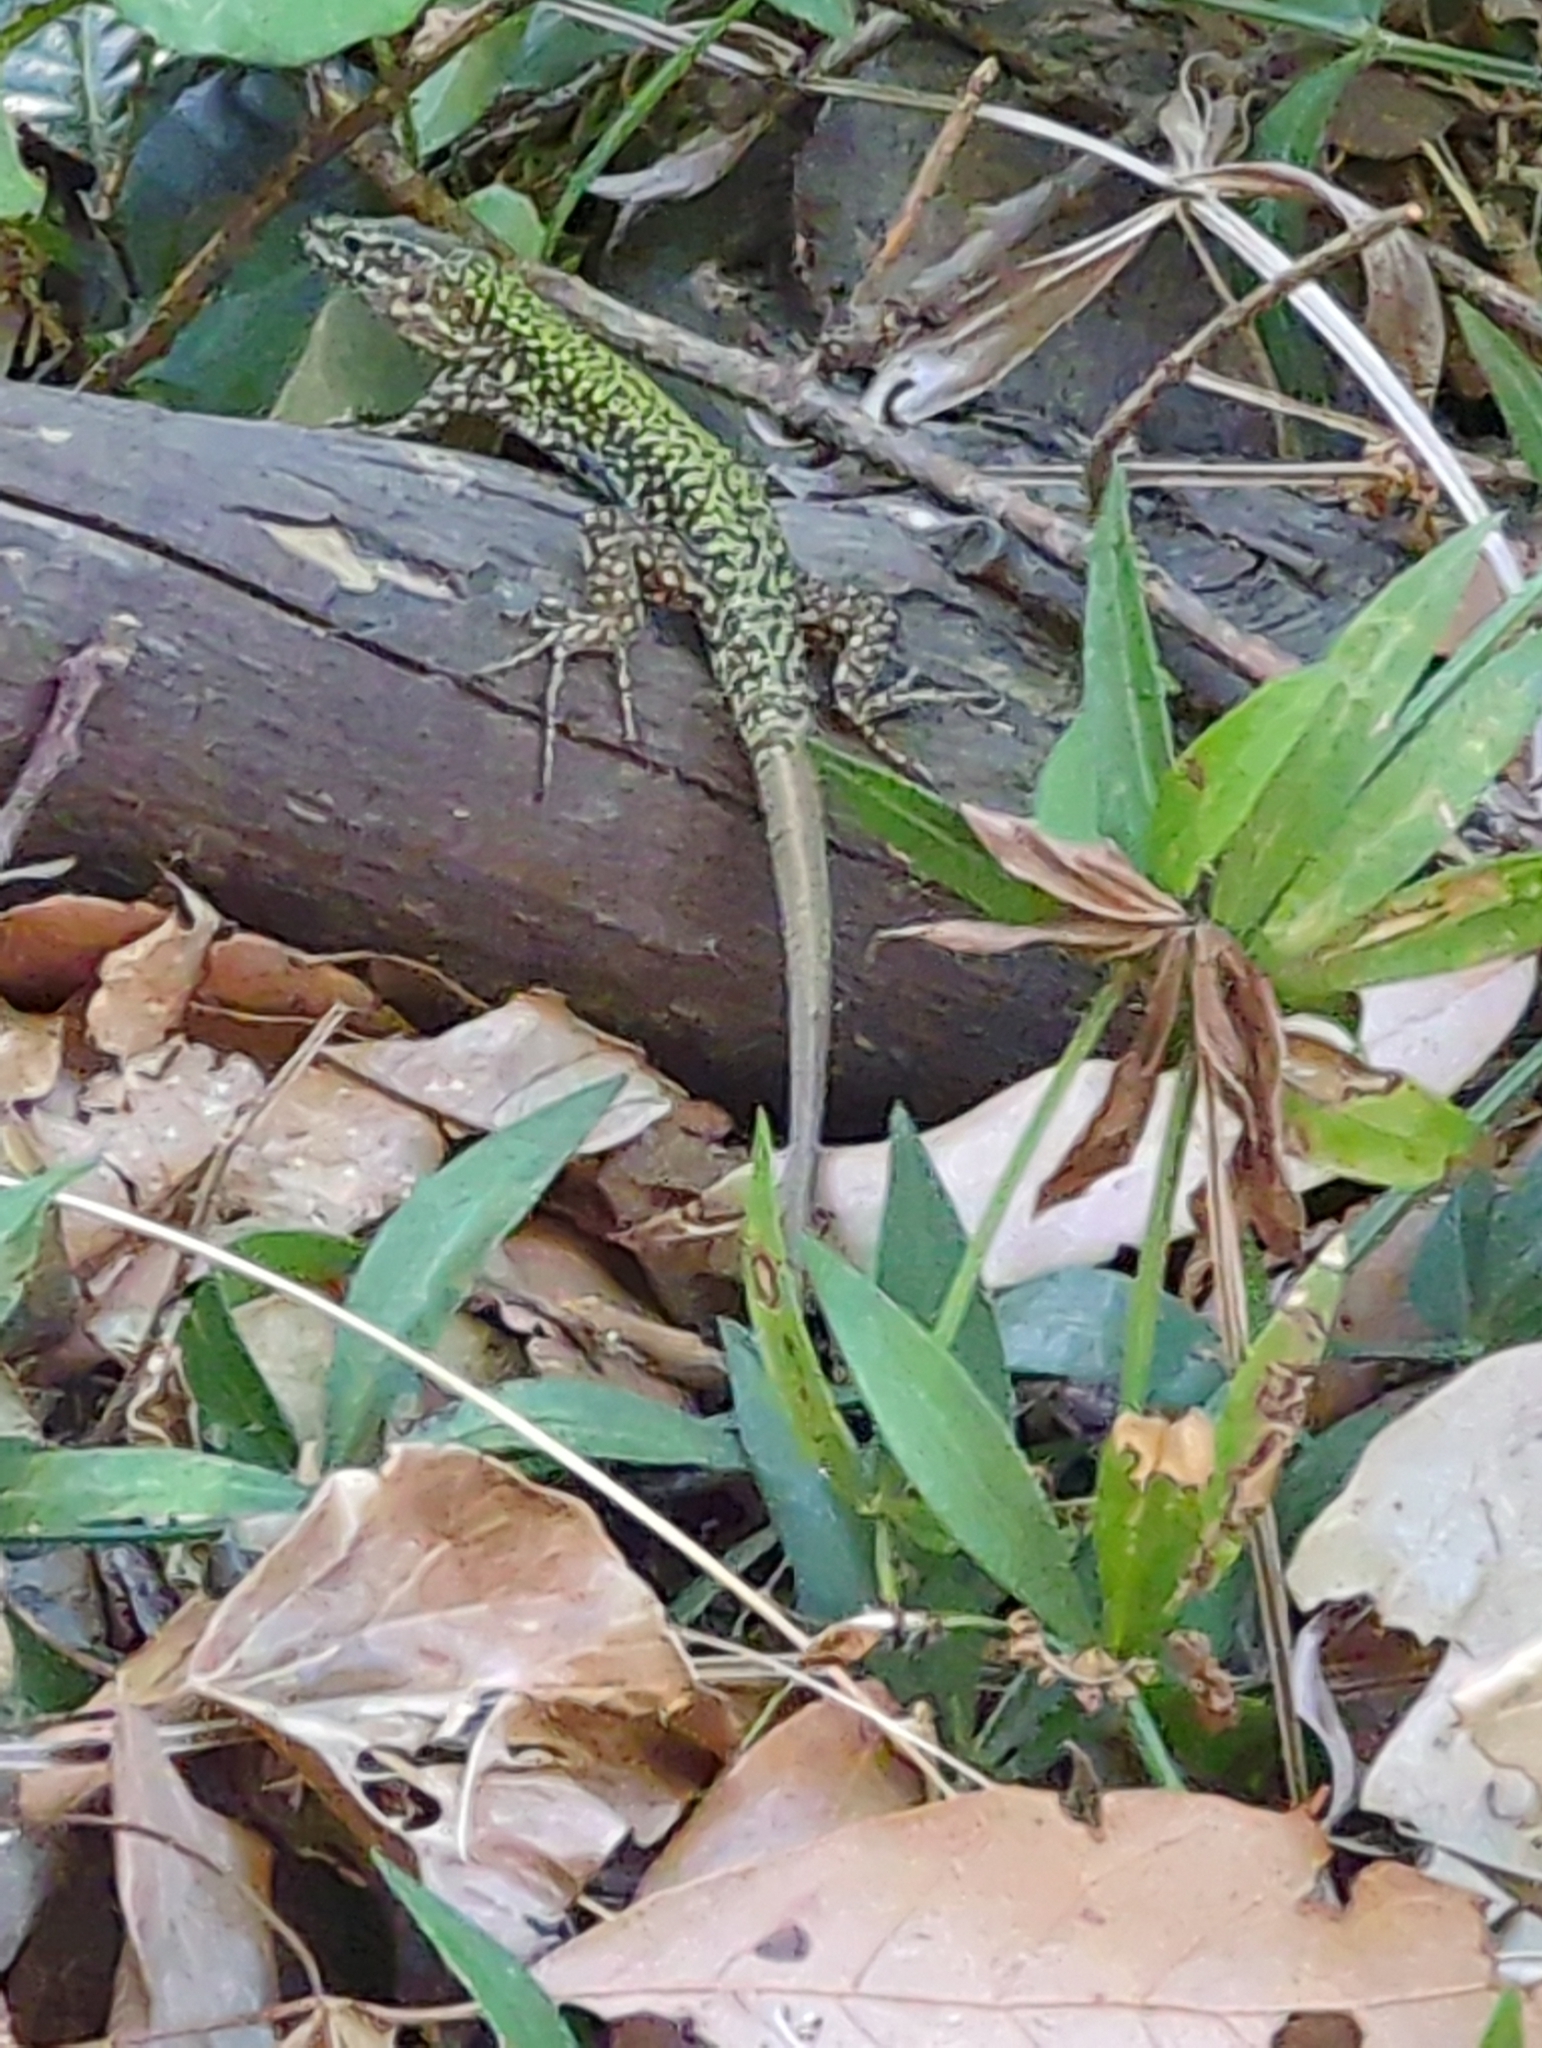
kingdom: Animalia
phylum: Chordata
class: Squamata
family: Lacertidae
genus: Podarcis
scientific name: Podarcis muralis
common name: Common wall lizard
